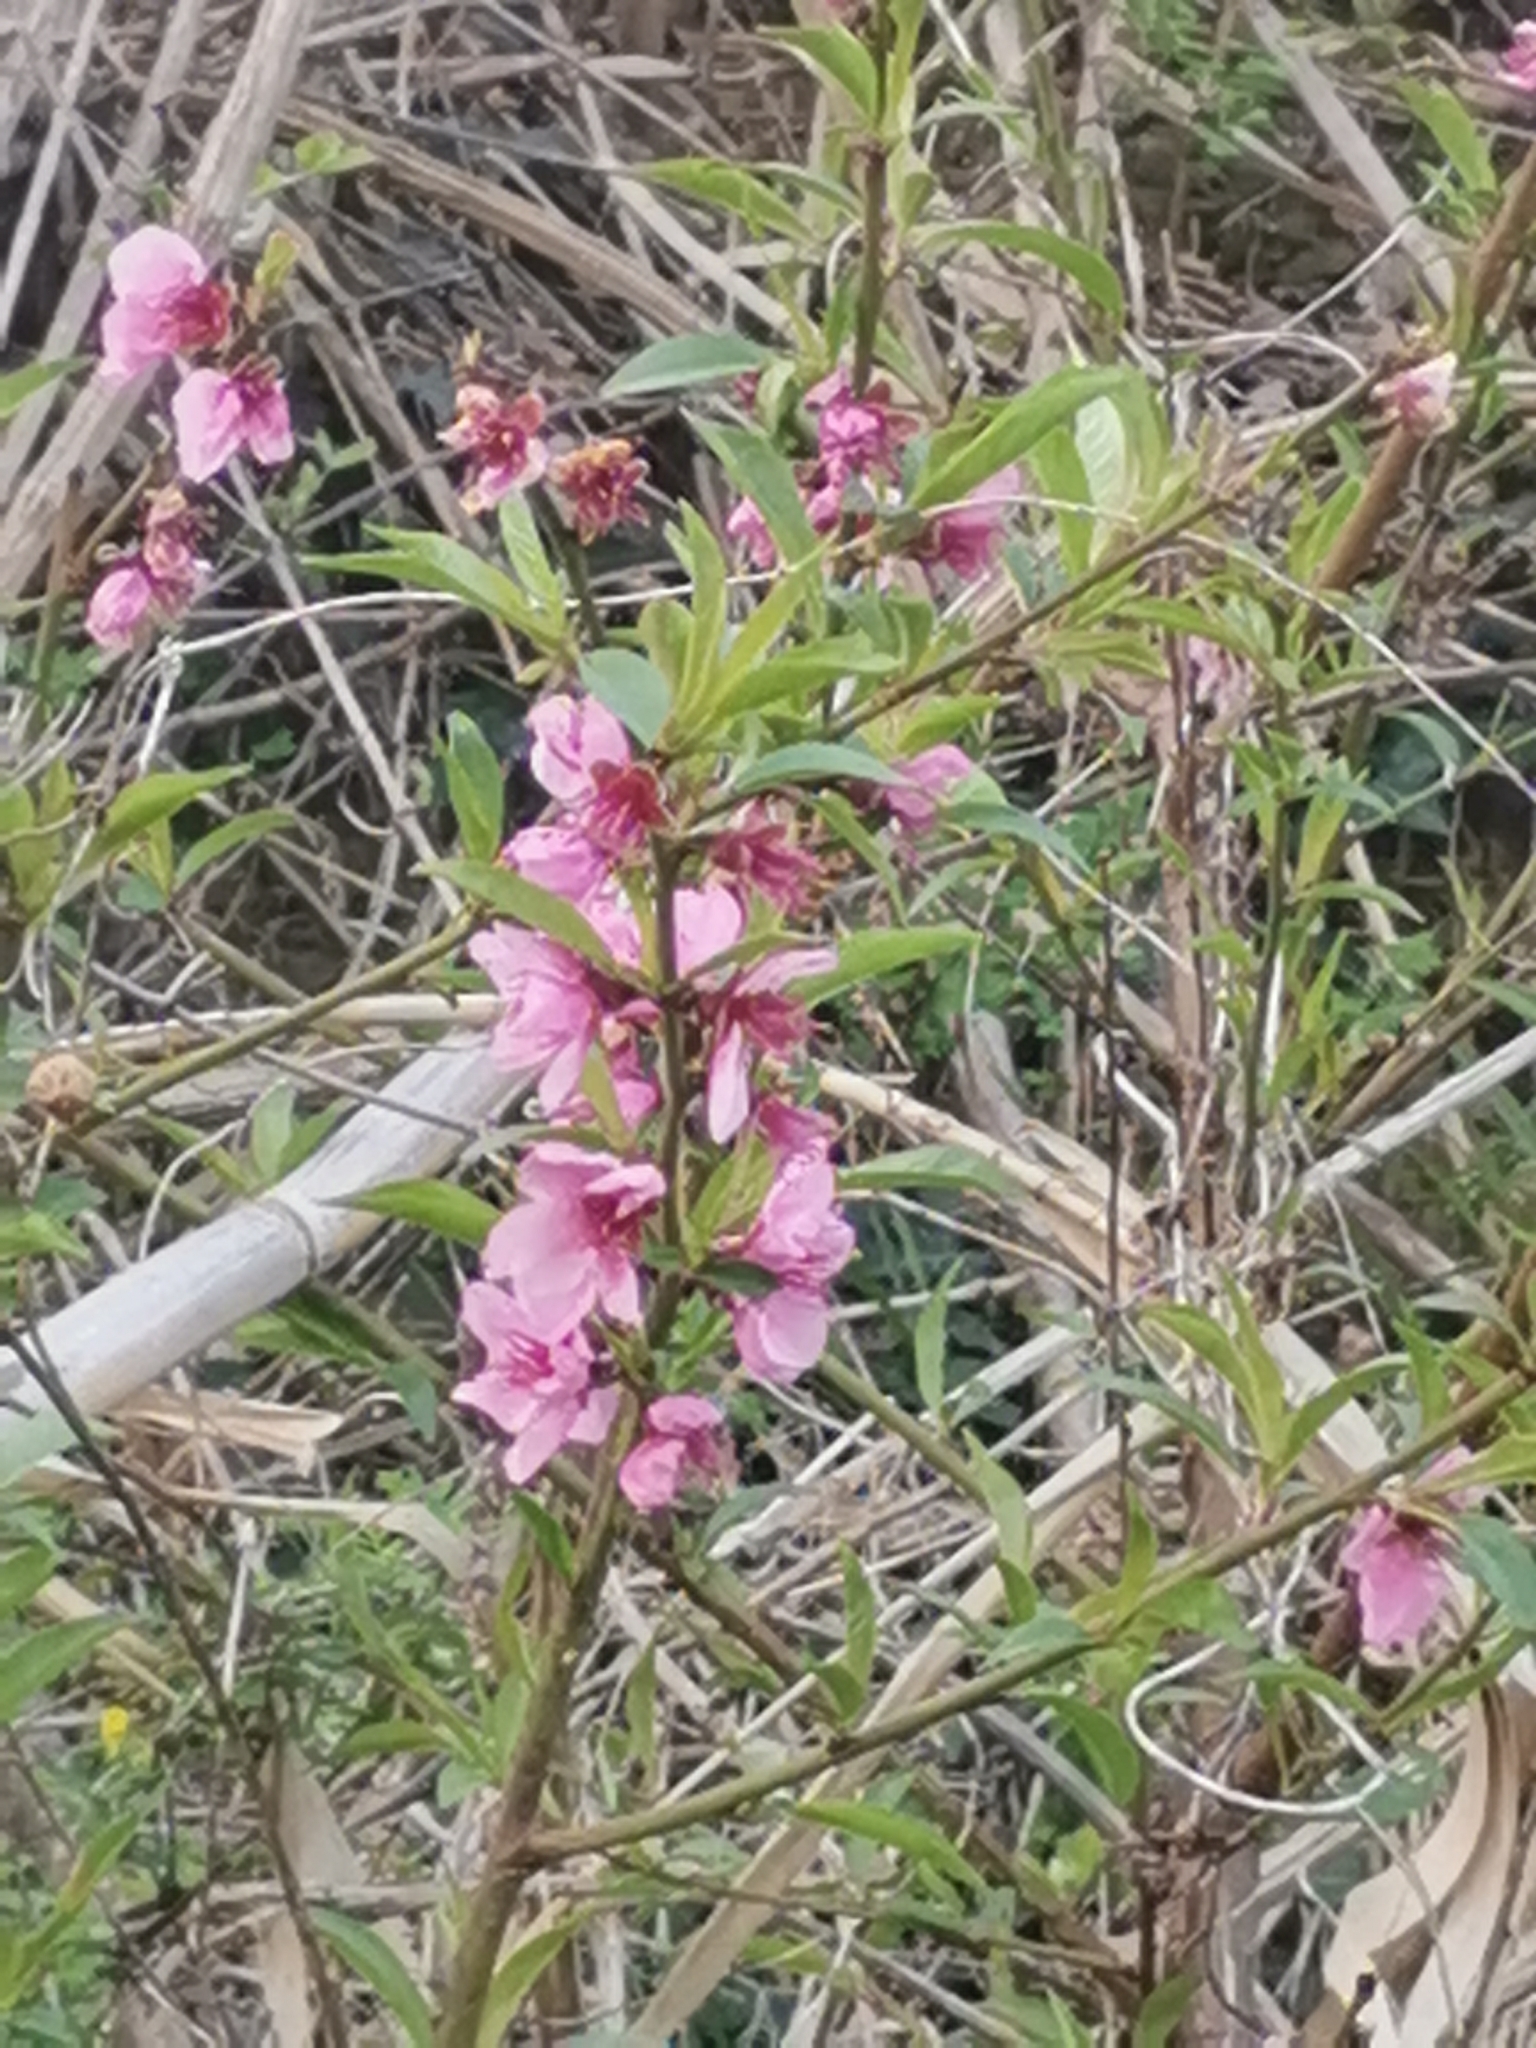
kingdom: Plantae
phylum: Tracheophyta
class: Magnoliopsida
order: Rosales
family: Rosaceae
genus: Prunus
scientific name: Prunus persica
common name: Peach
